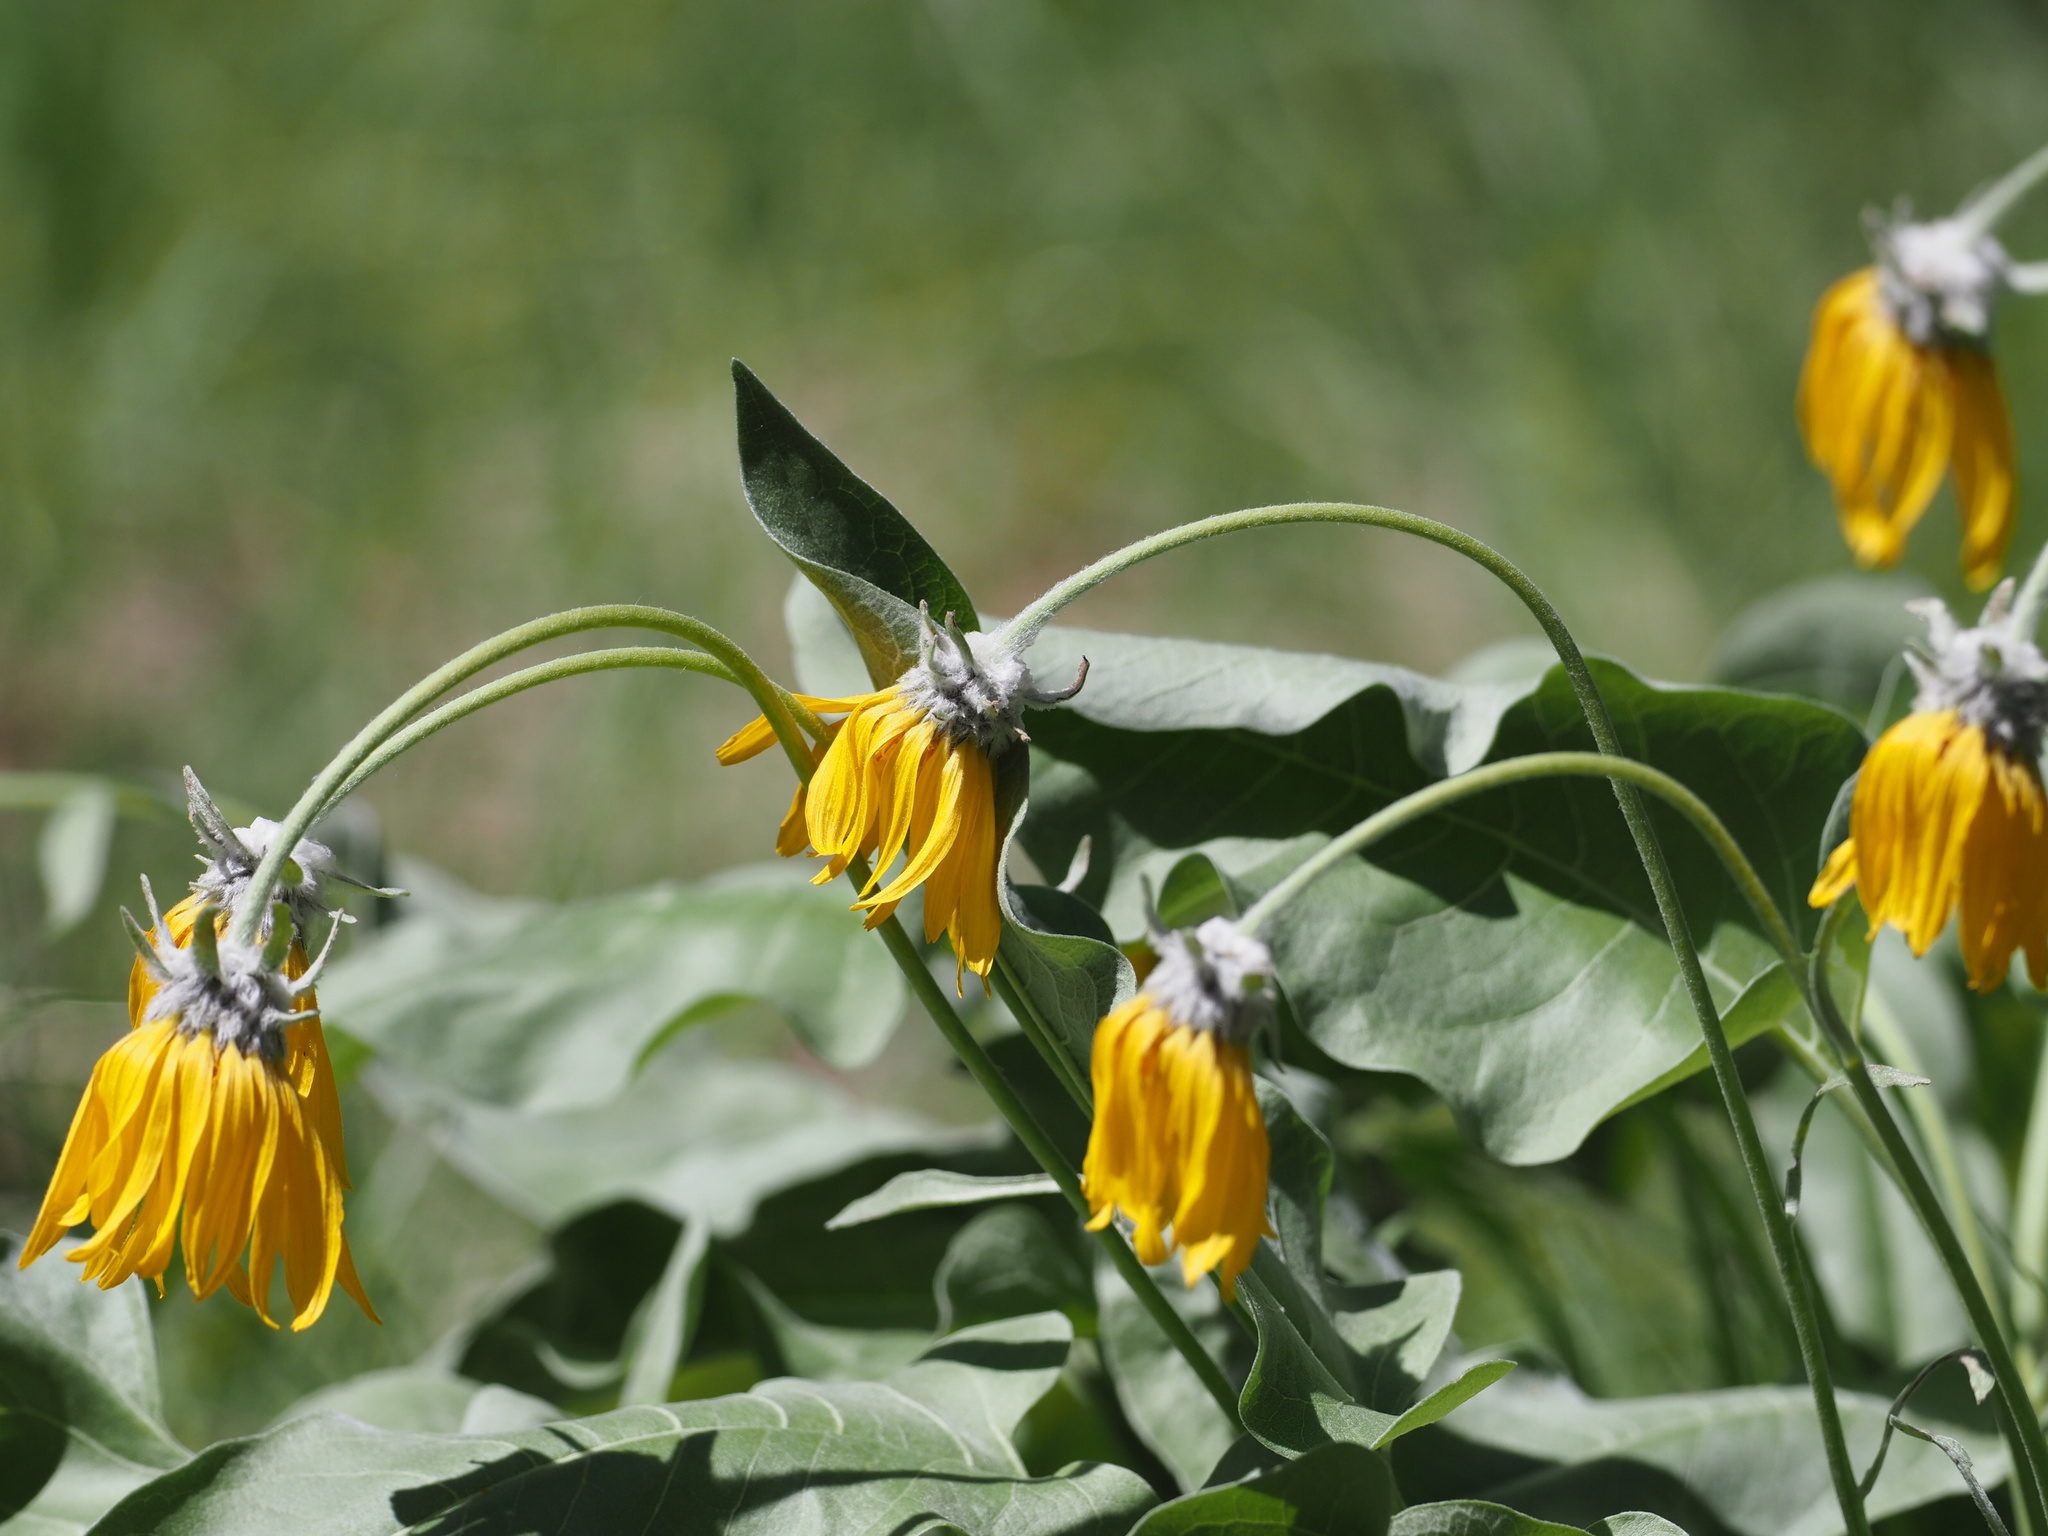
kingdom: Plantae
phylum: Tracheophyta
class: Magnoliopsida
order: Asterales
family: Asteraceae
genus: Wyethia
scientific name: Wyethia sagittata
